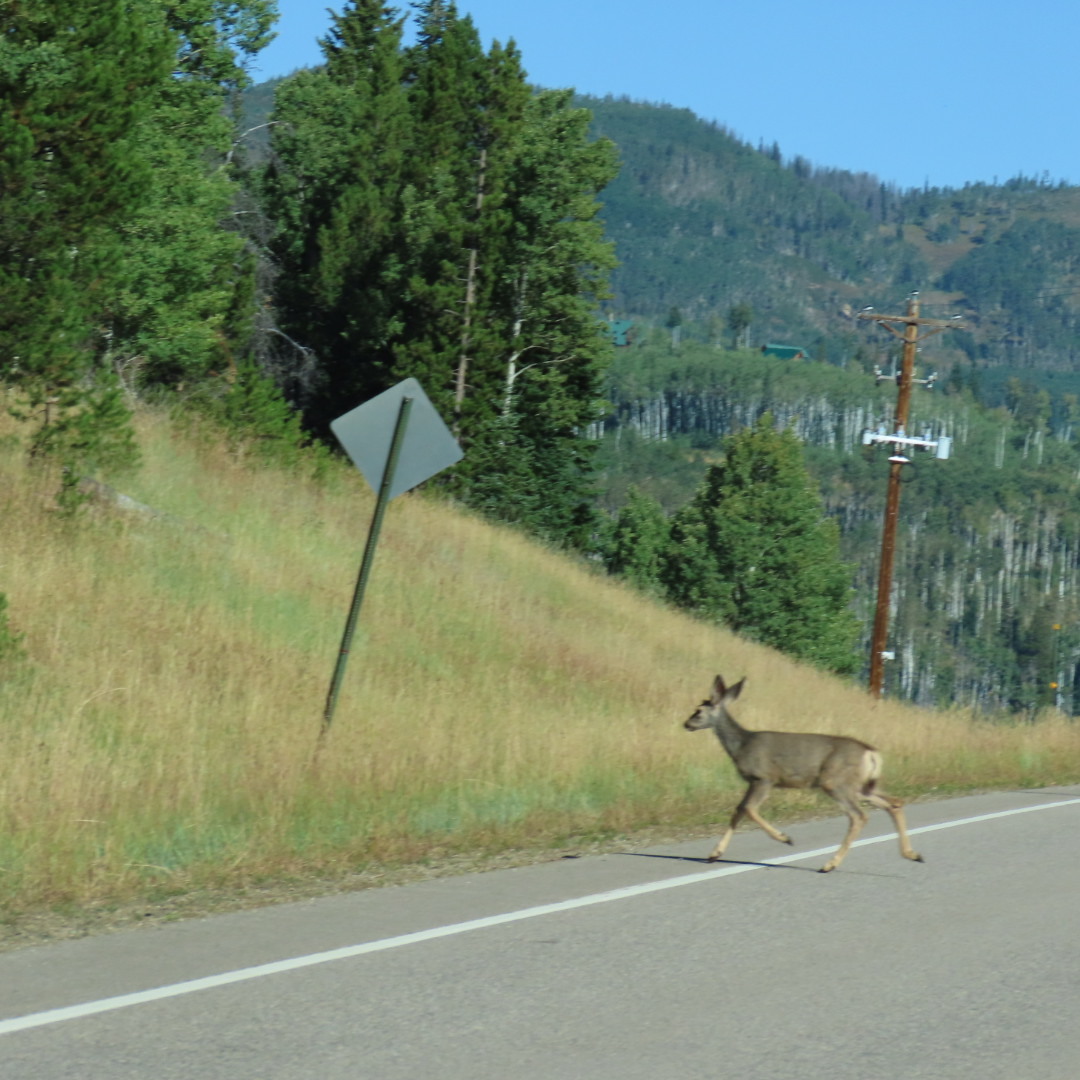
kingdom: Animalia
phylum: Chordata
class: Mammalia
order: Artiodactyla
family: Cervidae
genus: Odocoileus
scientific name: Odocoileus hemionus
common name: Mule deer
